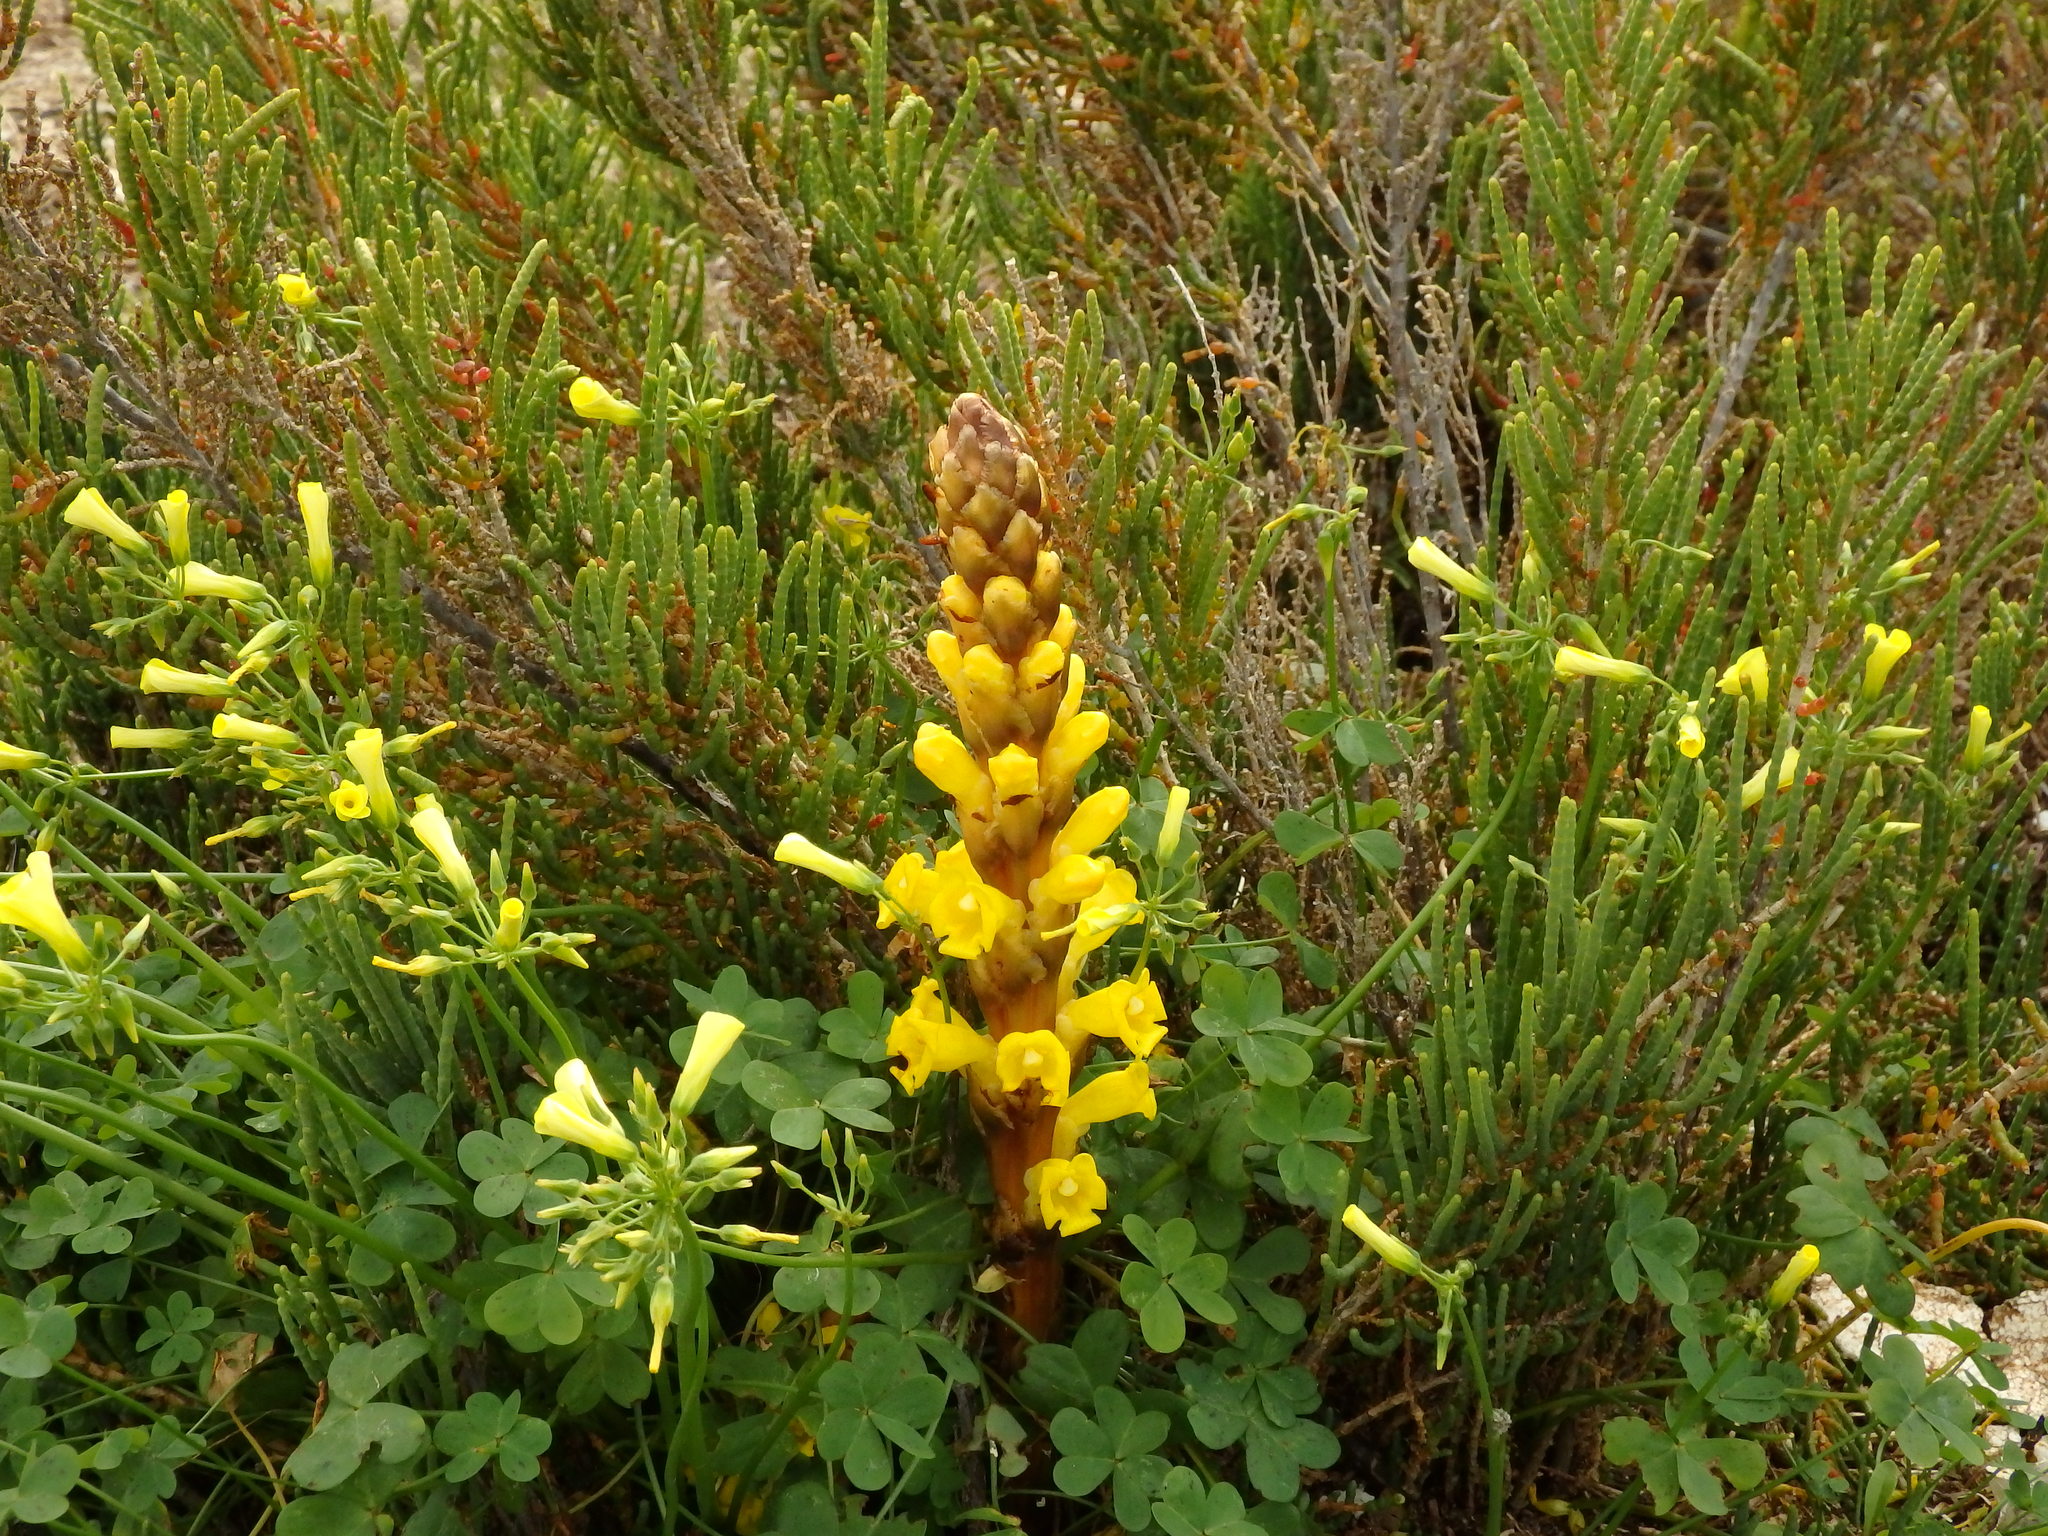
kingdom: Plantae
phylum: Tracheophyta
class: Magnoliopsida
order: Oxalidales
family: Oxalidaceae
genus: Oxalis
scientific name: Oxalis pes-caprae
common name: Bermuda-buttercup
